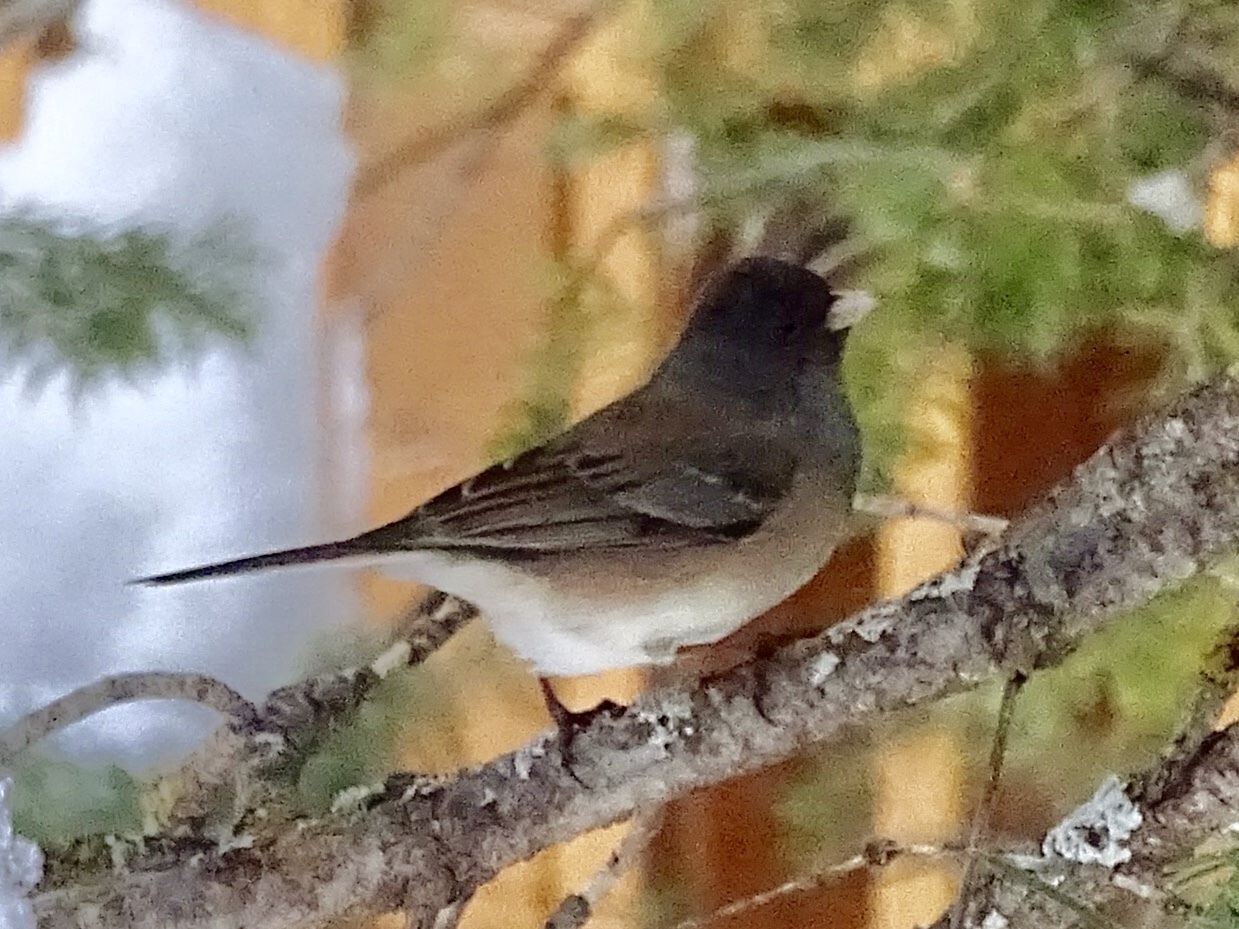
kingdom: Animalia
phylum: Chordata
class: Aves
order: Passeriformes
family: Passerellidae
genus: Junco
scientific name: Junco hyemalis
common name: Dark-eyed junco
